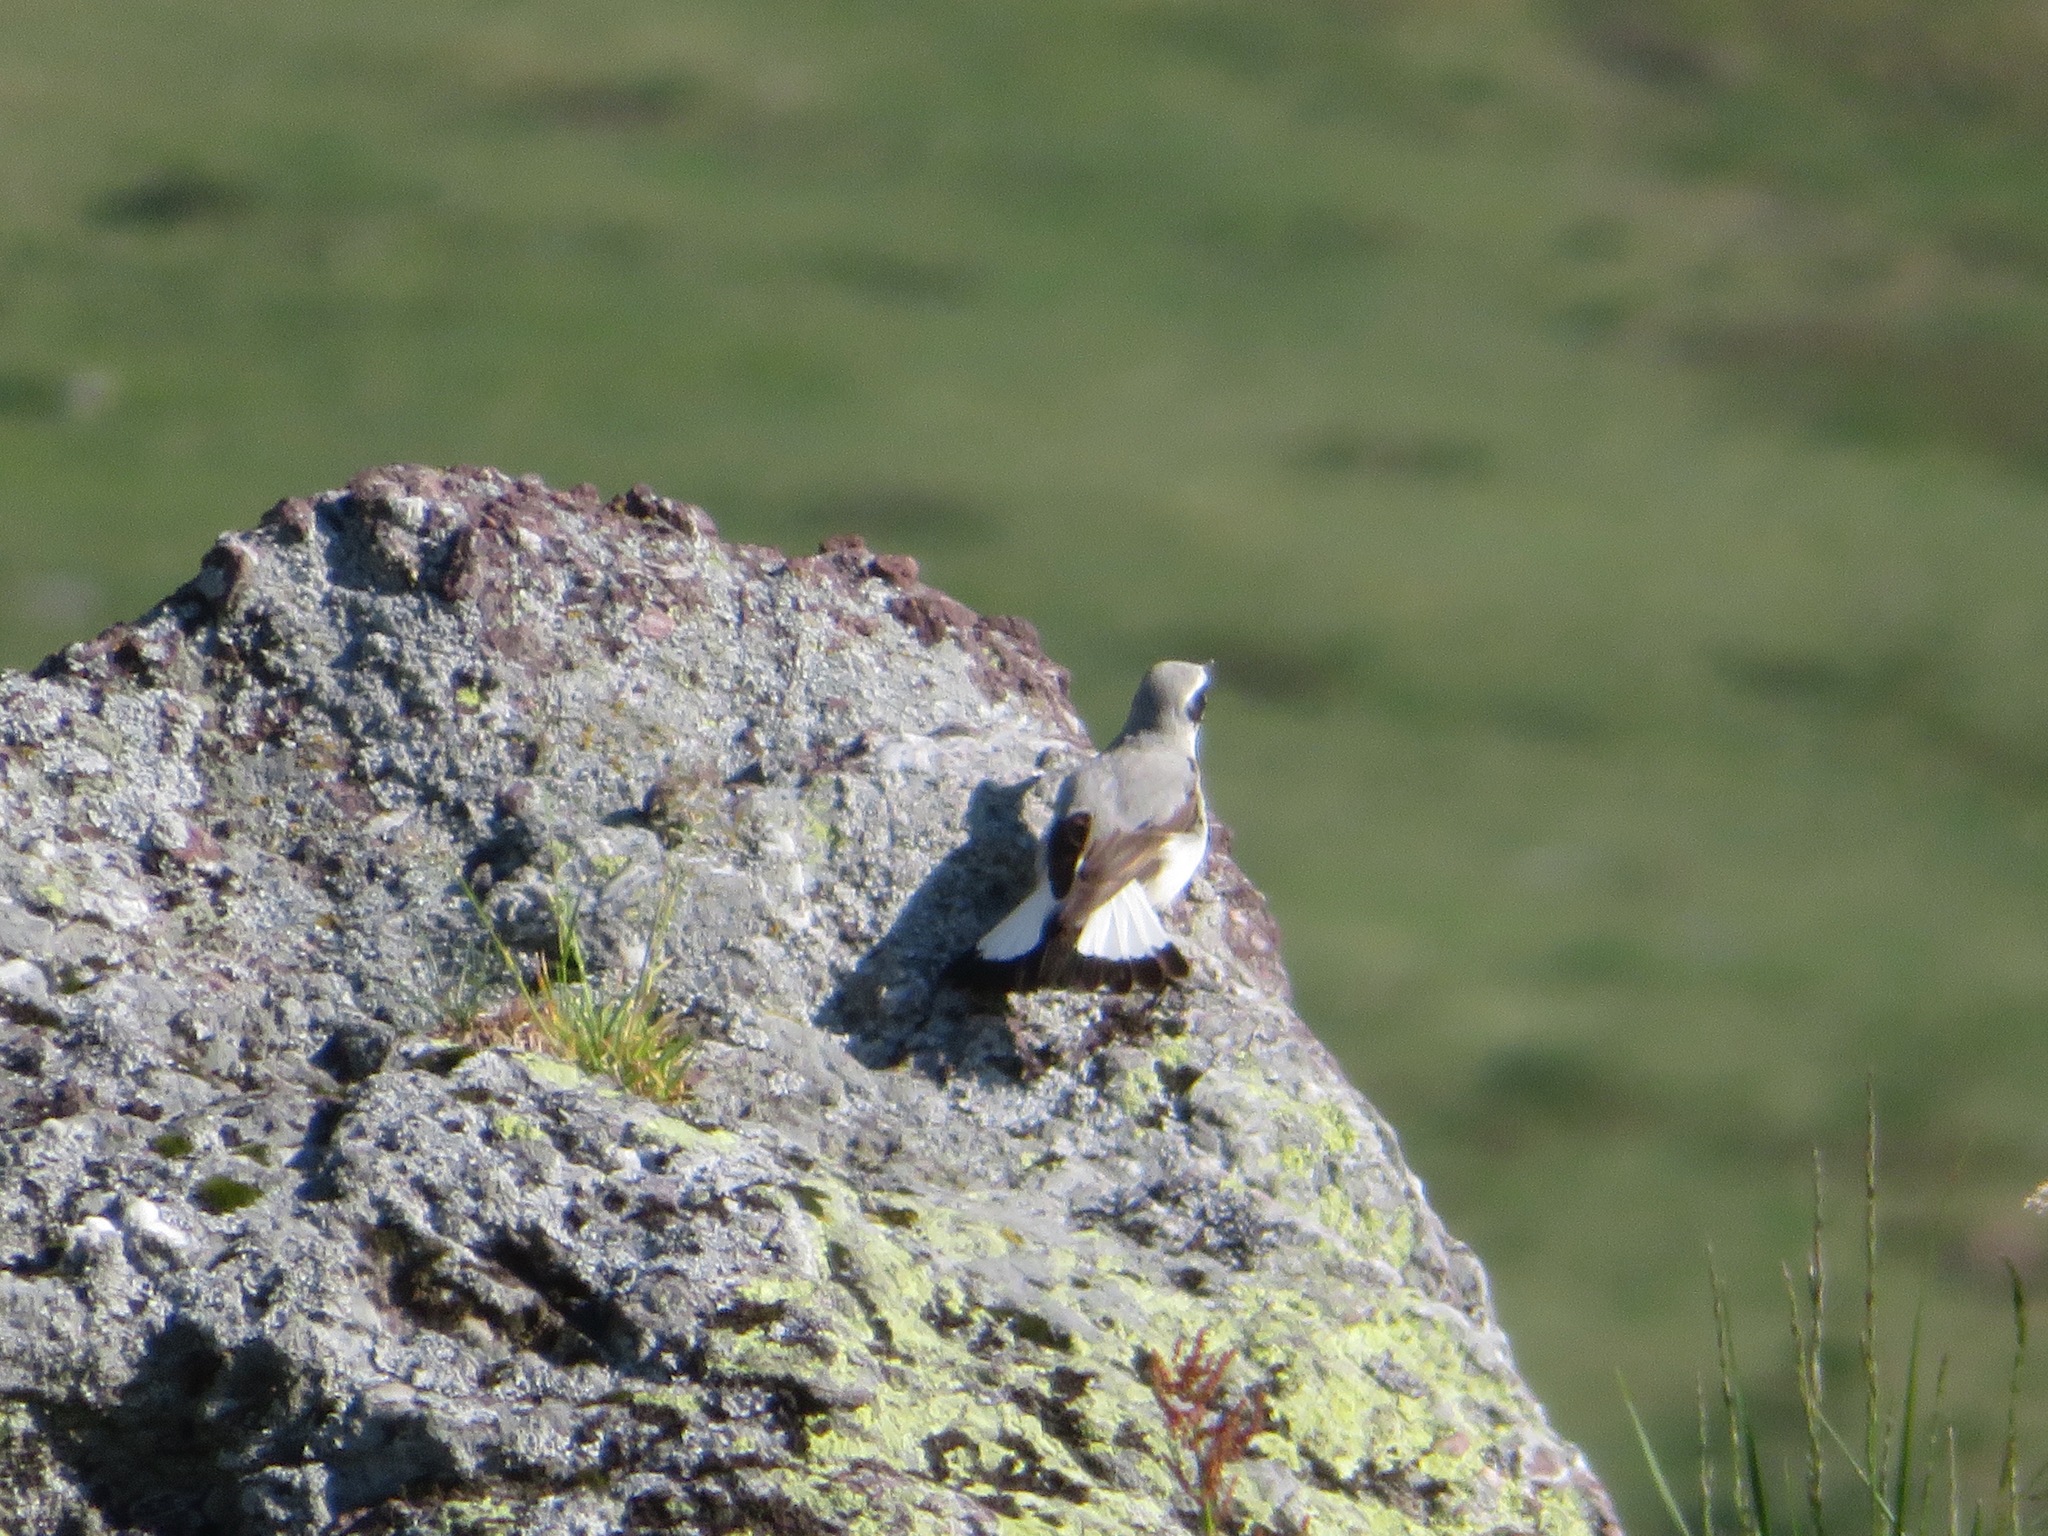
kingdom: Animalia
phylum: Chordata
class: Aves
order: Passeriformes
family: Muscicapidae
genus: Oenanthe
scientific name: Oenanthe oenanthe
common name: Northern wheatear
